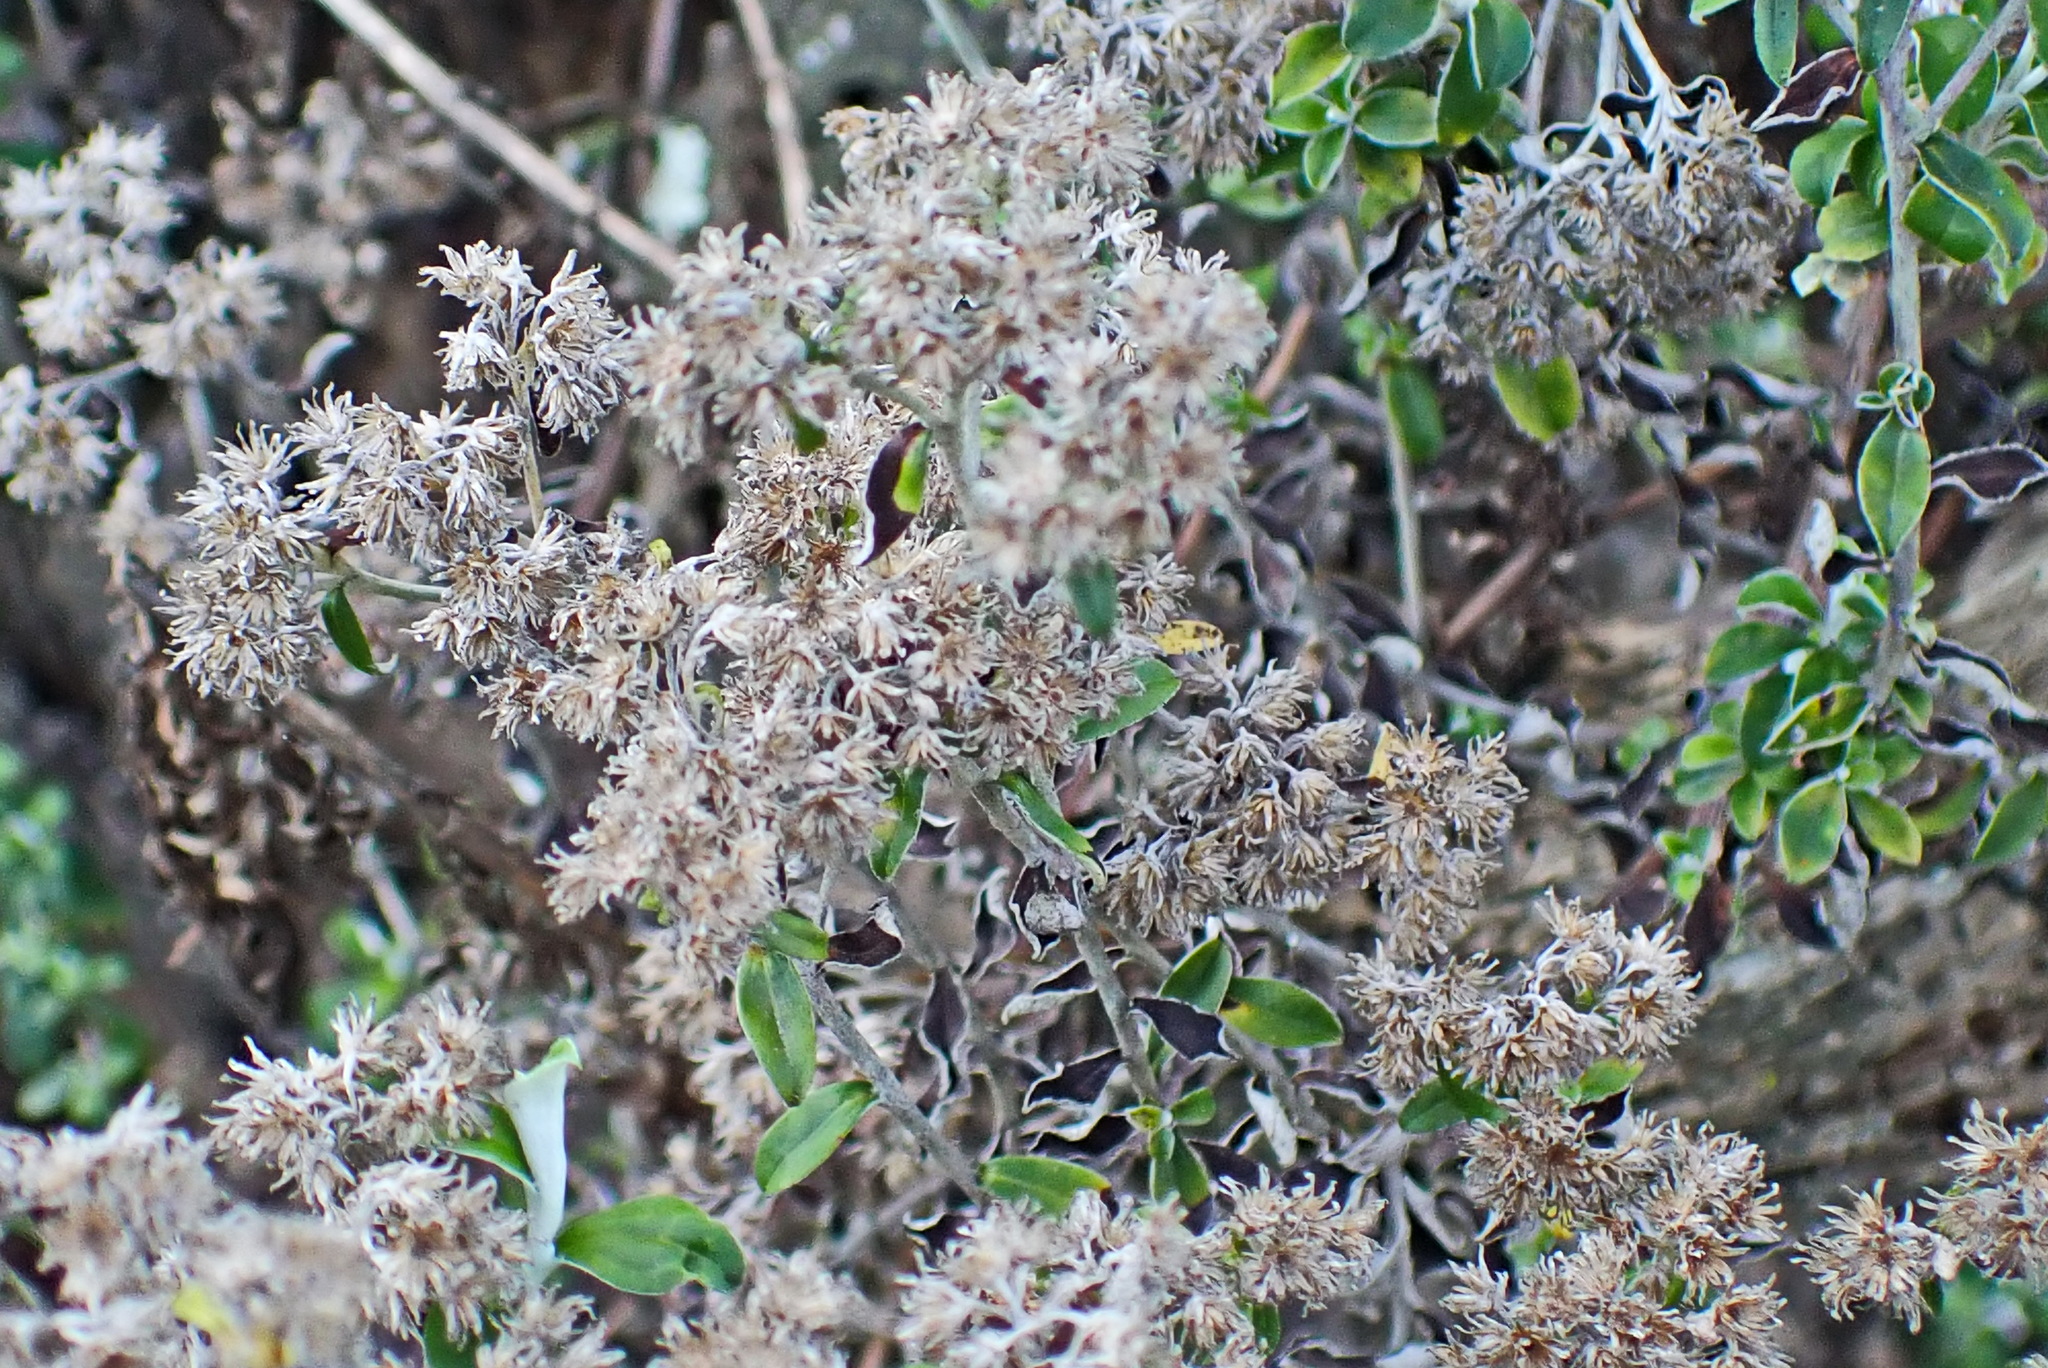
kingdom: Plantae
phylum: Tracheophyta
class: Magnoliopsida
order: Asterales
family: Asteraceae
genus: Plecostachys
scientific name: Plecostachys serpyllifolia
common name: Petite licorice
